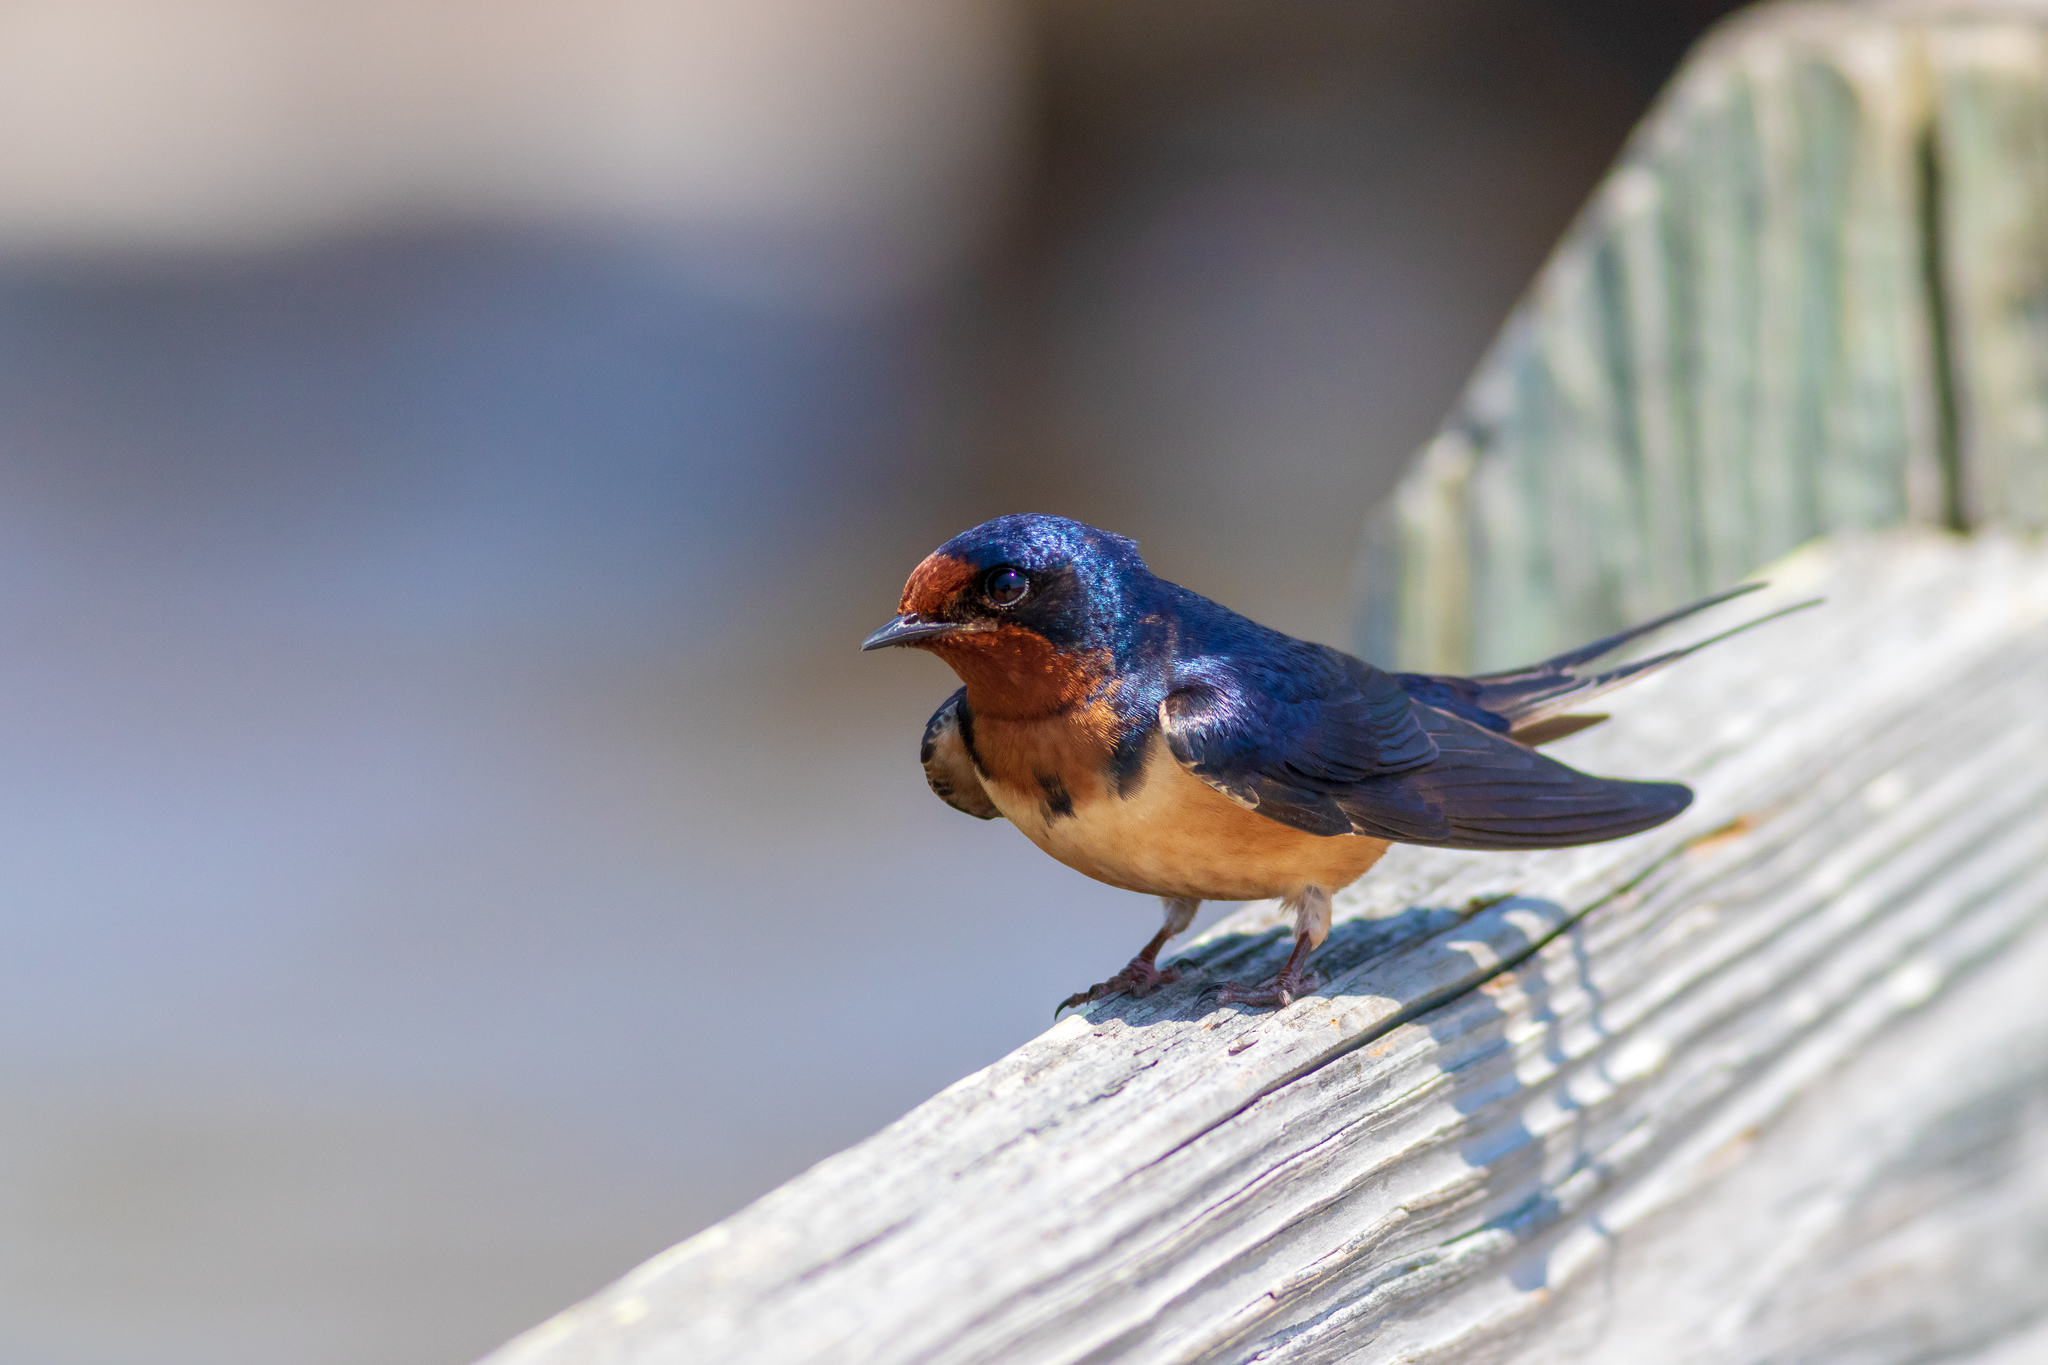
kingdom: Animalia
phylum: Chordata
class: Aves
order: Passeriformes
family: Hirundinidae
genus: Hirundo
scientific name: Hirundo rustica
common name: Barn swallow
